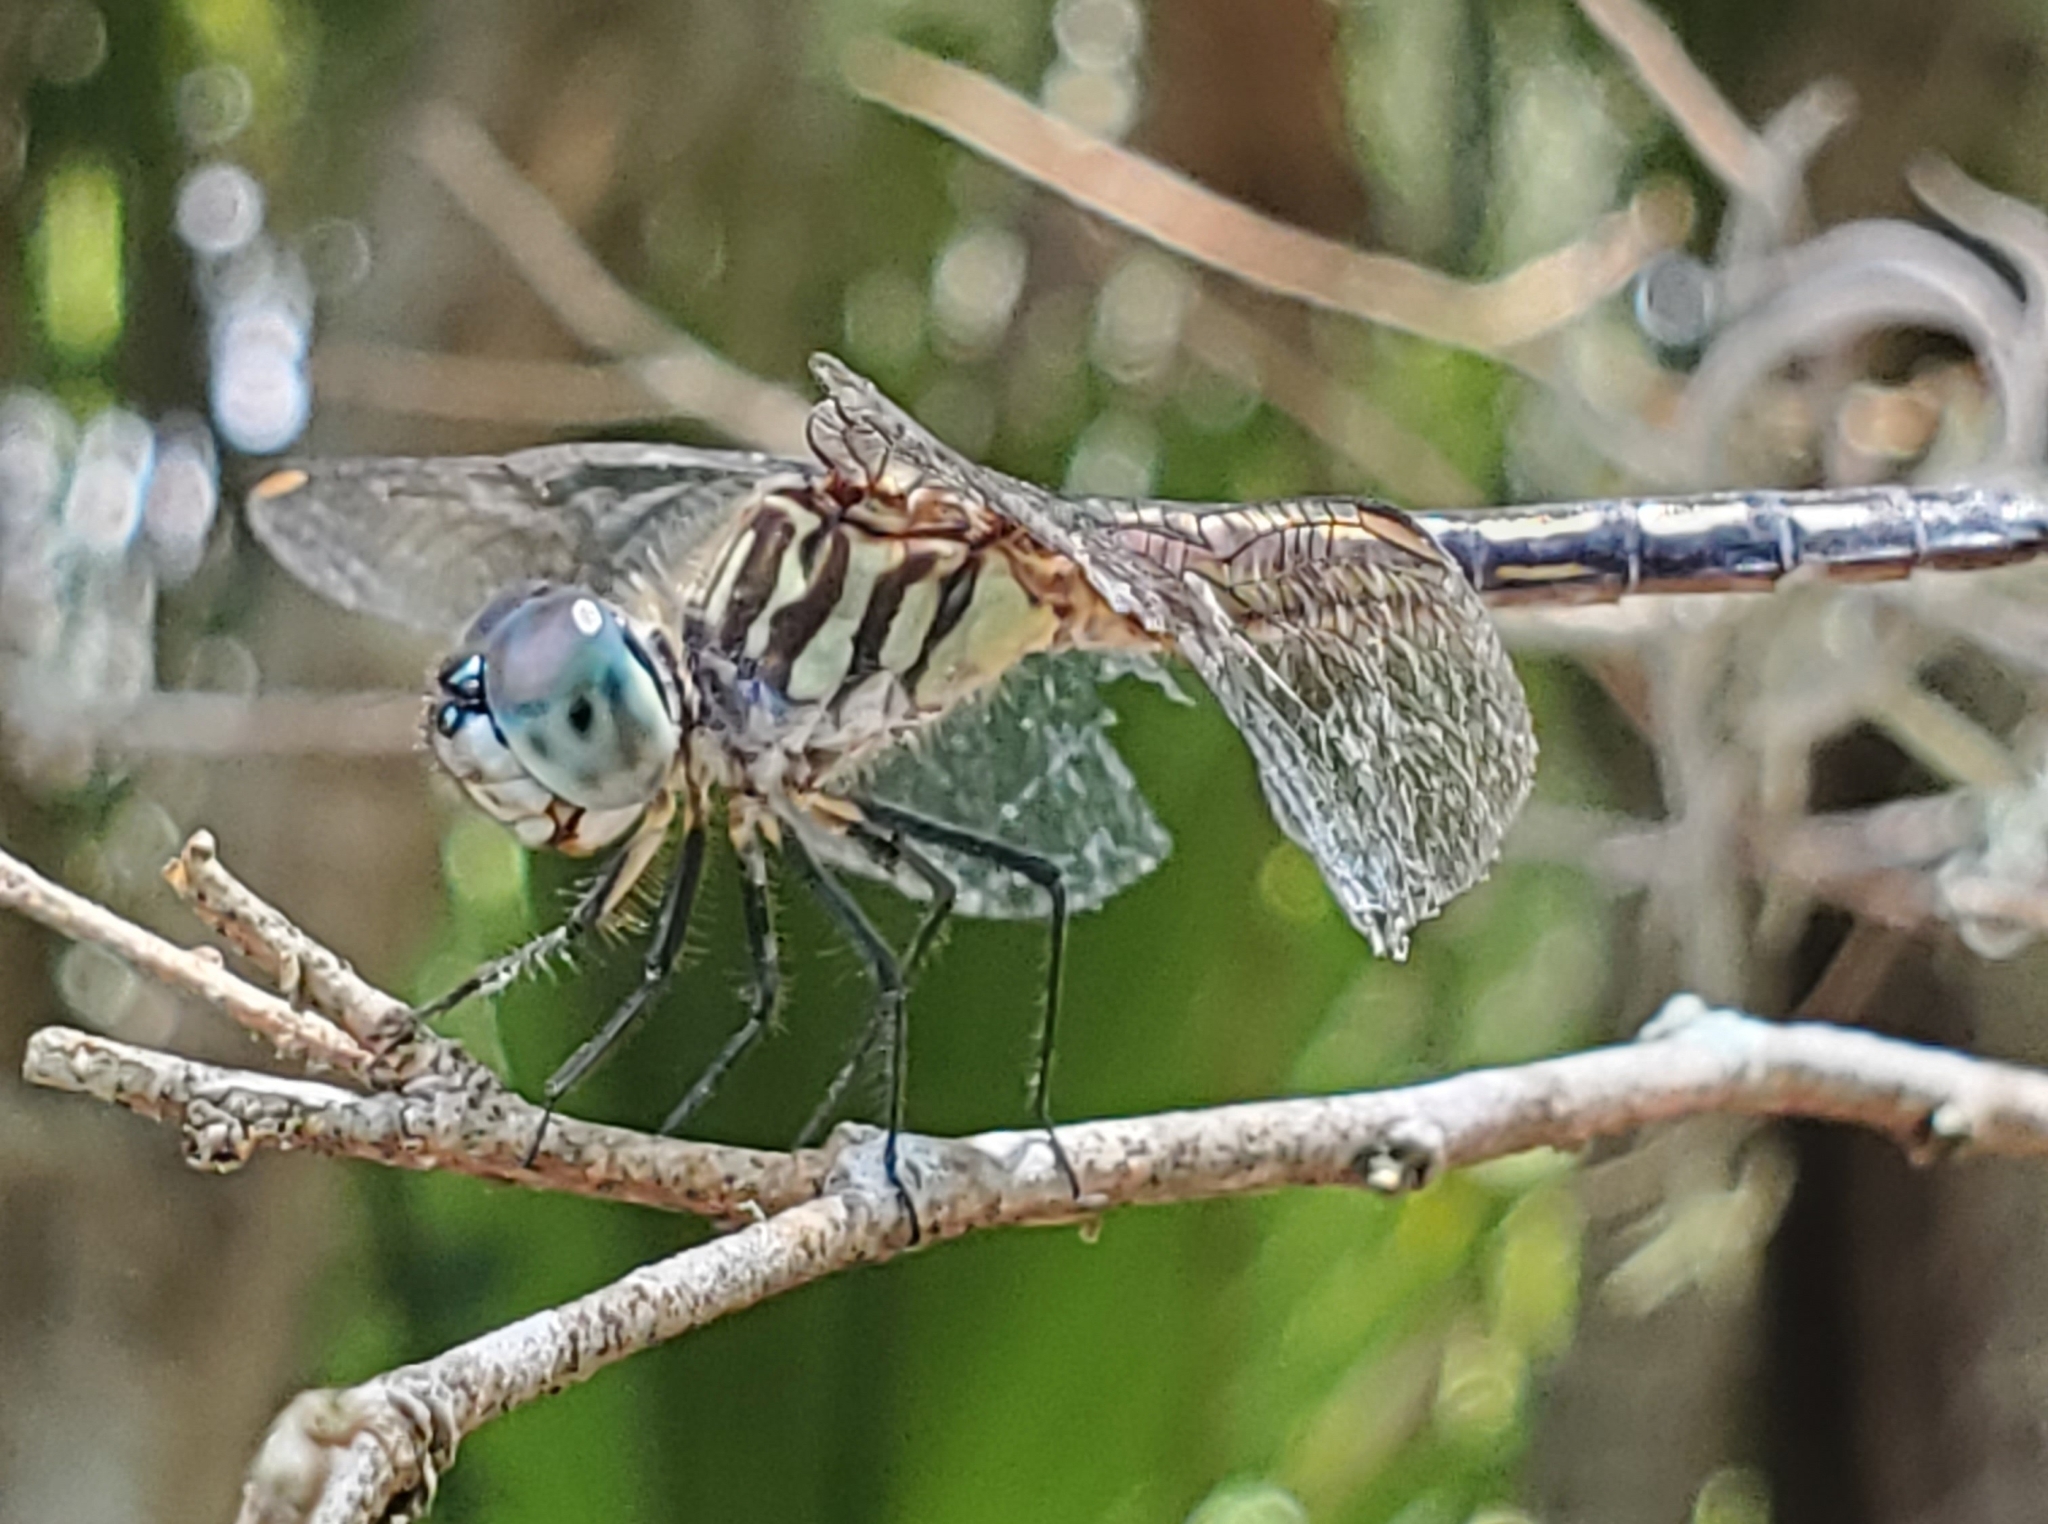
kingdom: Animalia
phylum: Arthropoda
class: Insecta
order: Odonata
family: Libellulidae
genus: Pachydiplax
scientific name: Pachydiplax longipennis
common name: Blue dasher
